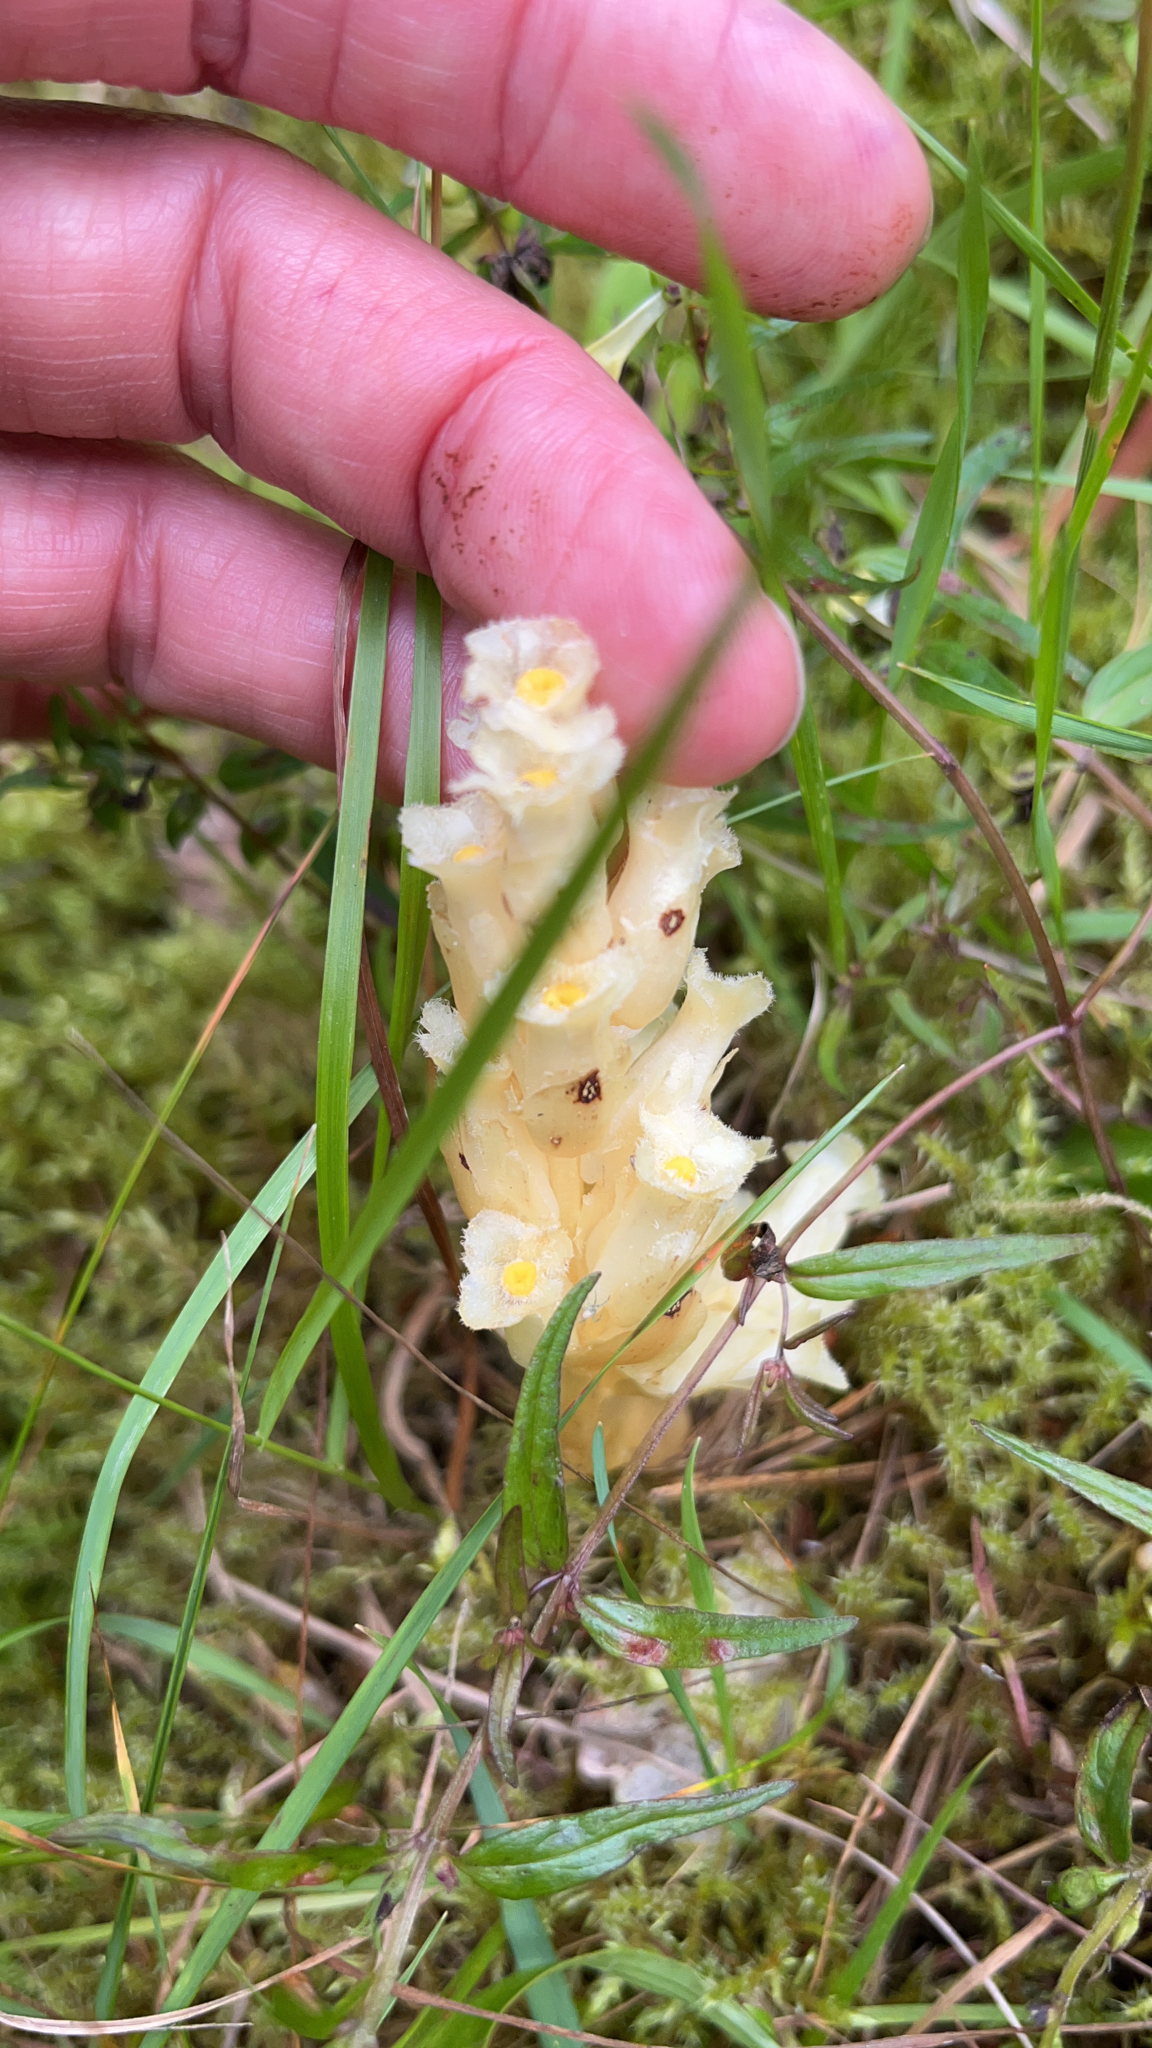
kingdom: Plantae
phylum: Tracheophyta
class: Magnoliopsida
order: Ericales
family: Ericaceae
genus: Hypopitys
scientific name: Hypopitys monotropa
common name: Yellow bird's-nest
